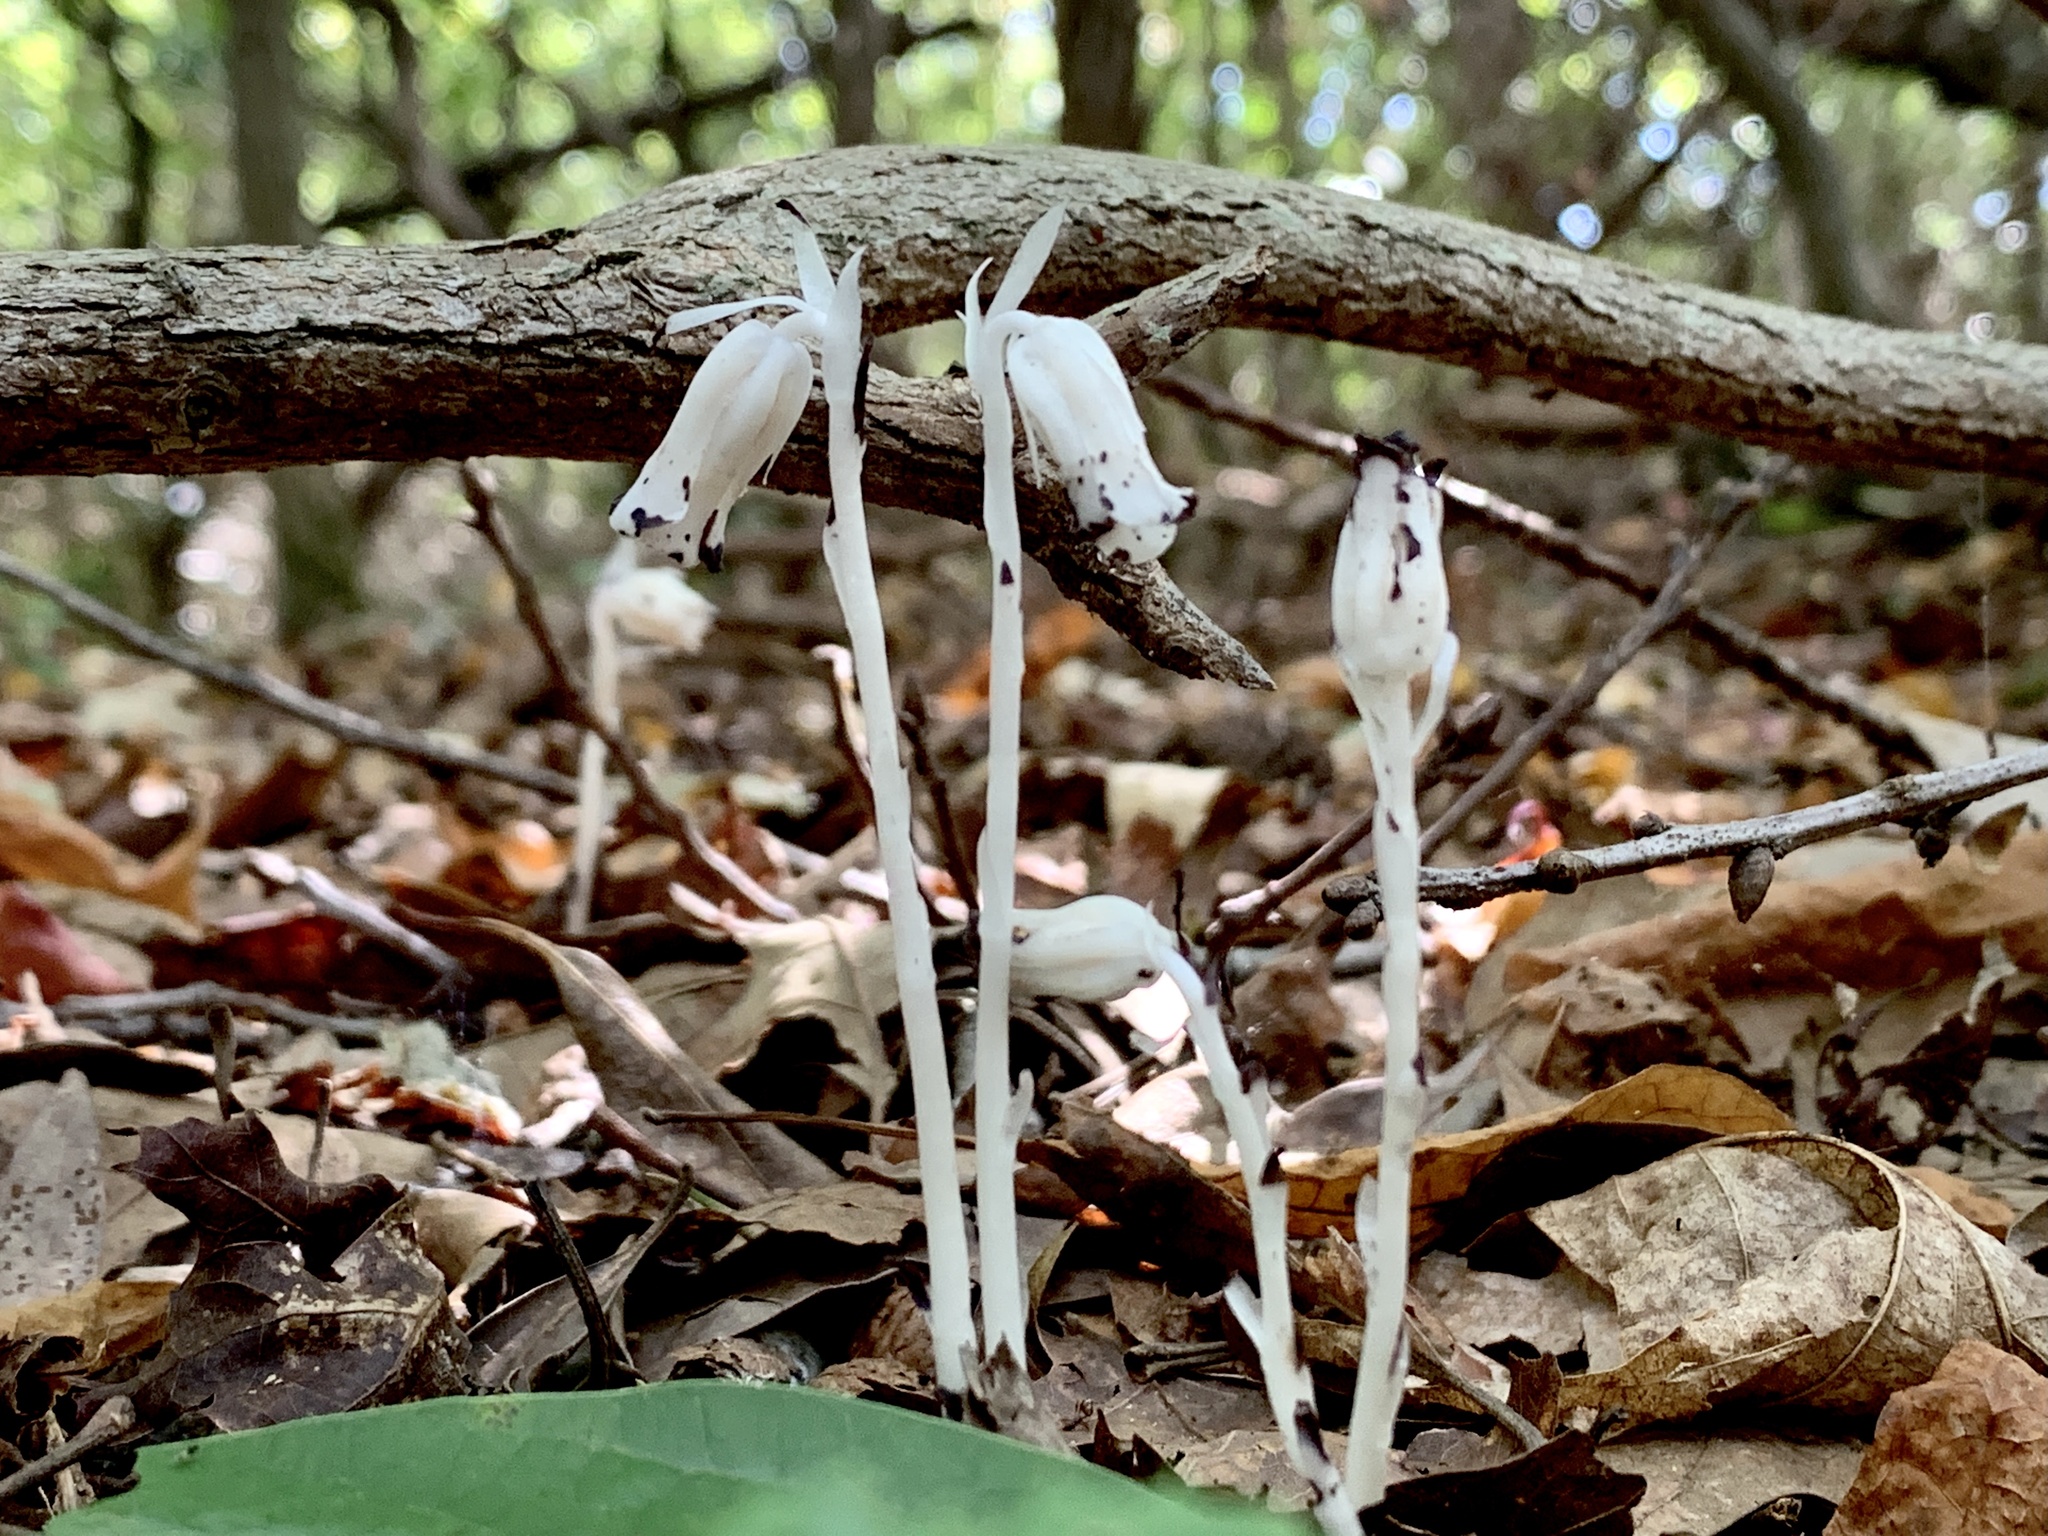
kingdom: Plantae
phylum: Tracheophyta
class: Magnoliopsida
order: Ericales
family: Ericaceae
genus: Monotropa
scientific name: Monotropa uniflora
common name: Convulsion root
